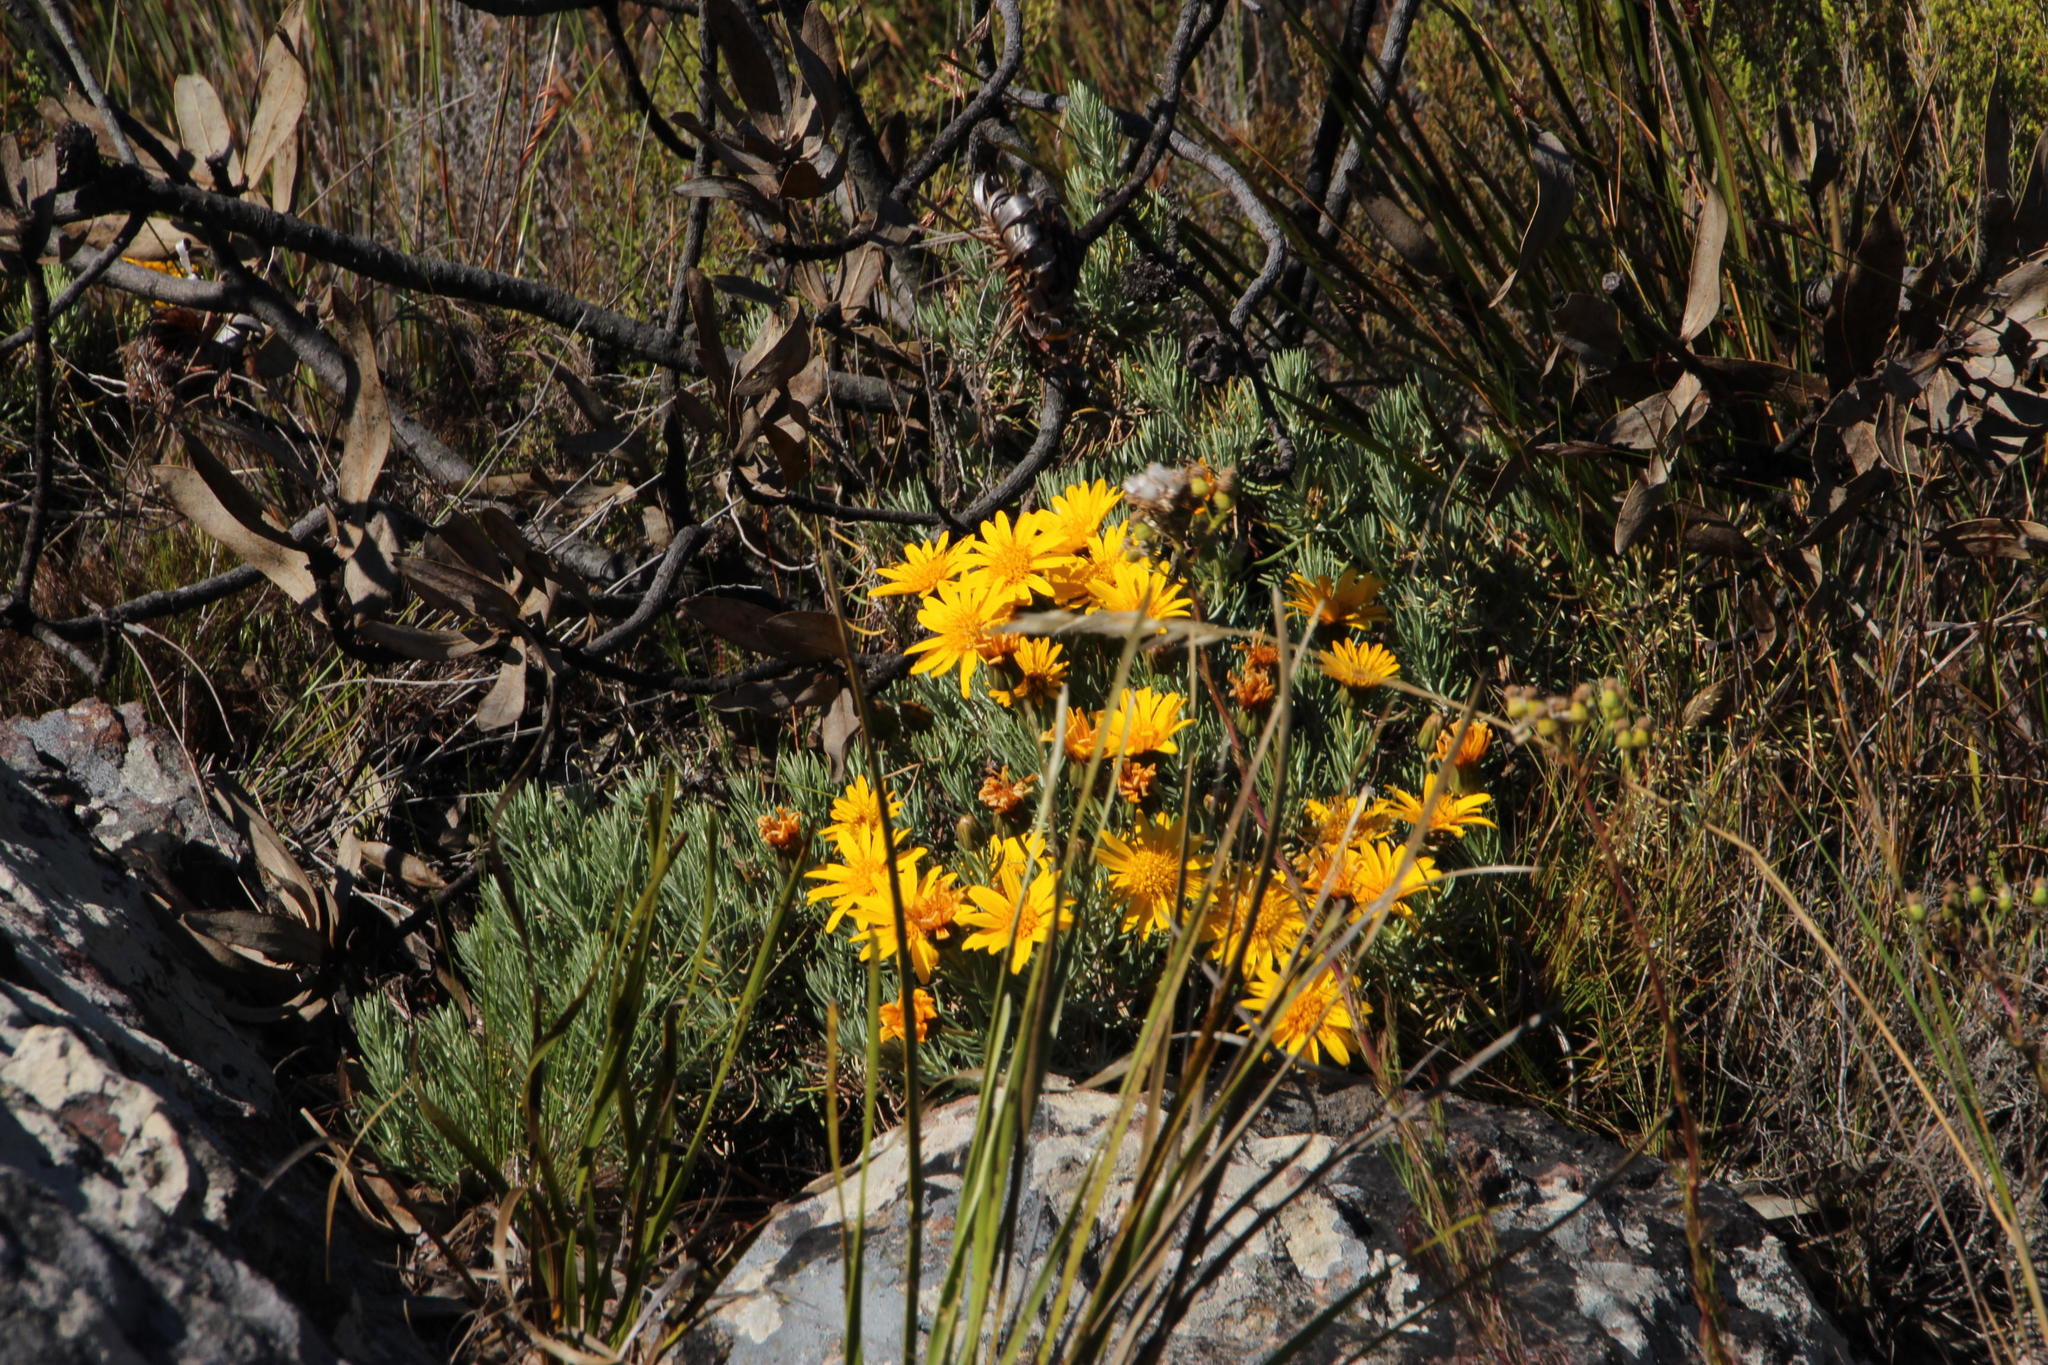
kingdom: Plantae
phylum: Tracheophyta
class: Magnoliopsida
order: Asterales
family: Asteraceae
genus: Heterolepis
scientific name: Heterolepis aliena
